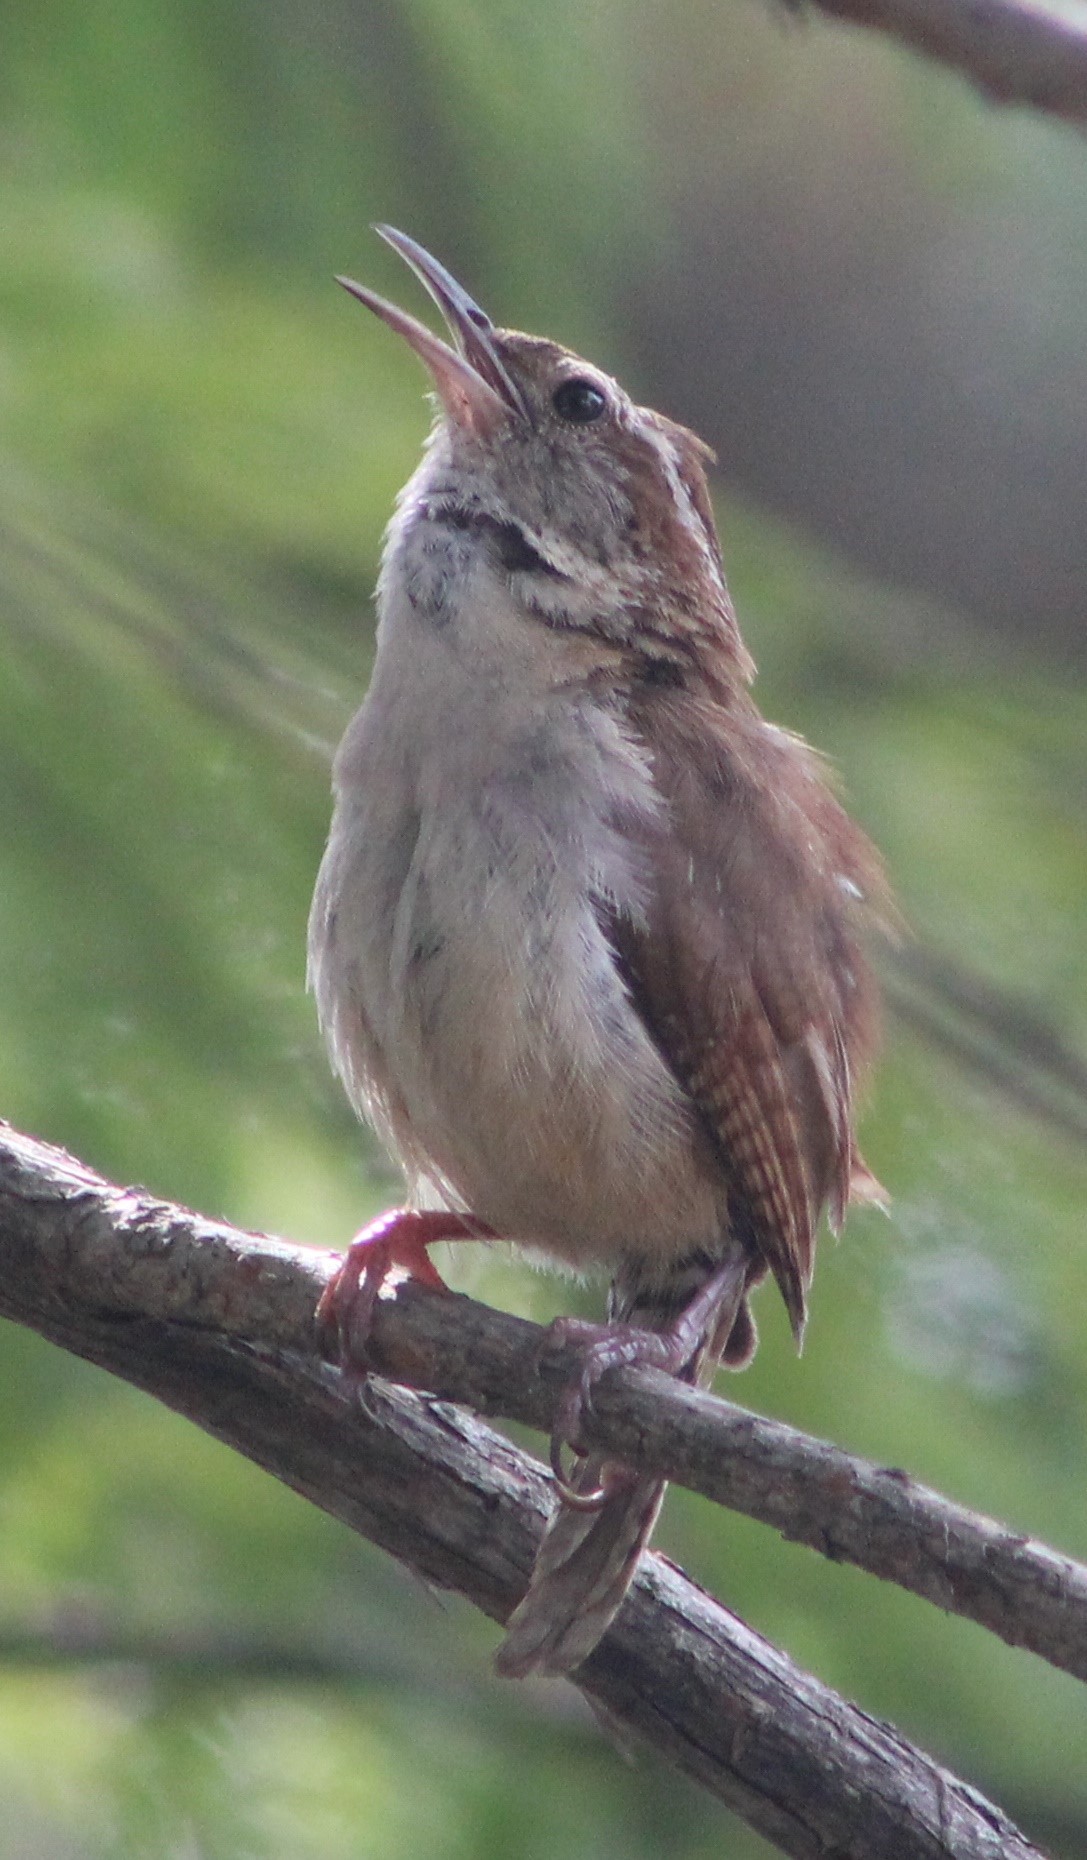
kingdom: Animalia
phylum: Chordata
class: Aves
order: Passeriformes
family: Troglodytidae
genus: Thryothorus
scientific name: Thryothorus ludovicianus
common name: Carolina wren
